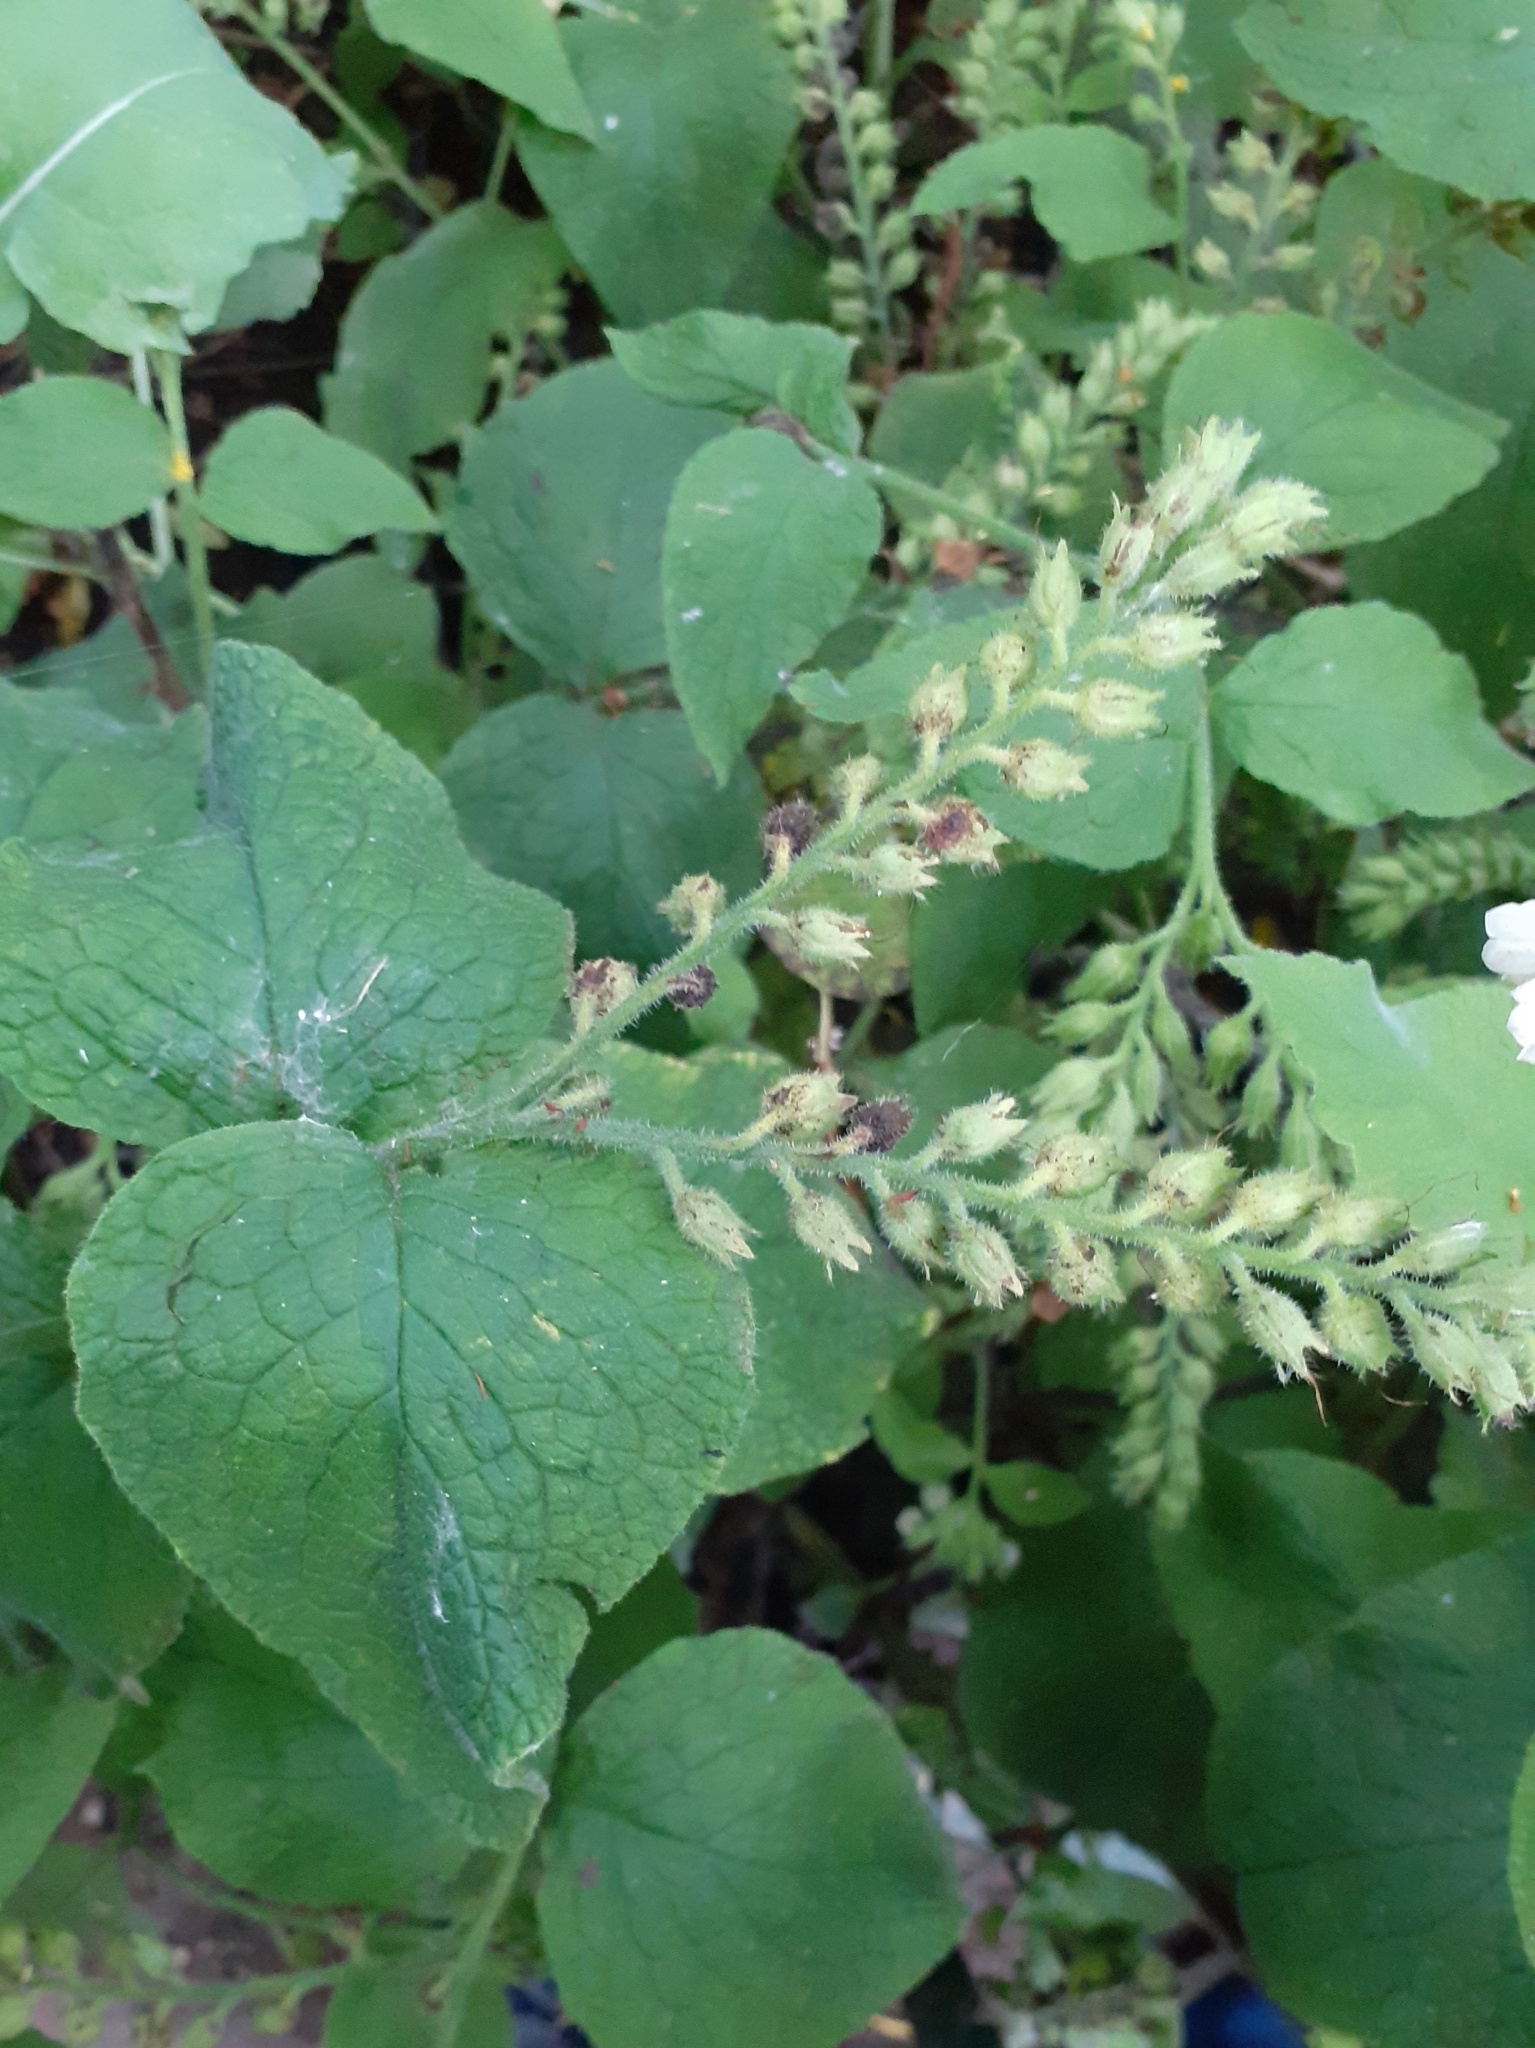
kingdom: Plantae
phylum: Tracheophyta
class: Magnoliopsida
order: Boraginales
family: Boraginaceae
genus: Symphytum
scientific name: Symphytum orientale
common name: White comfrey
